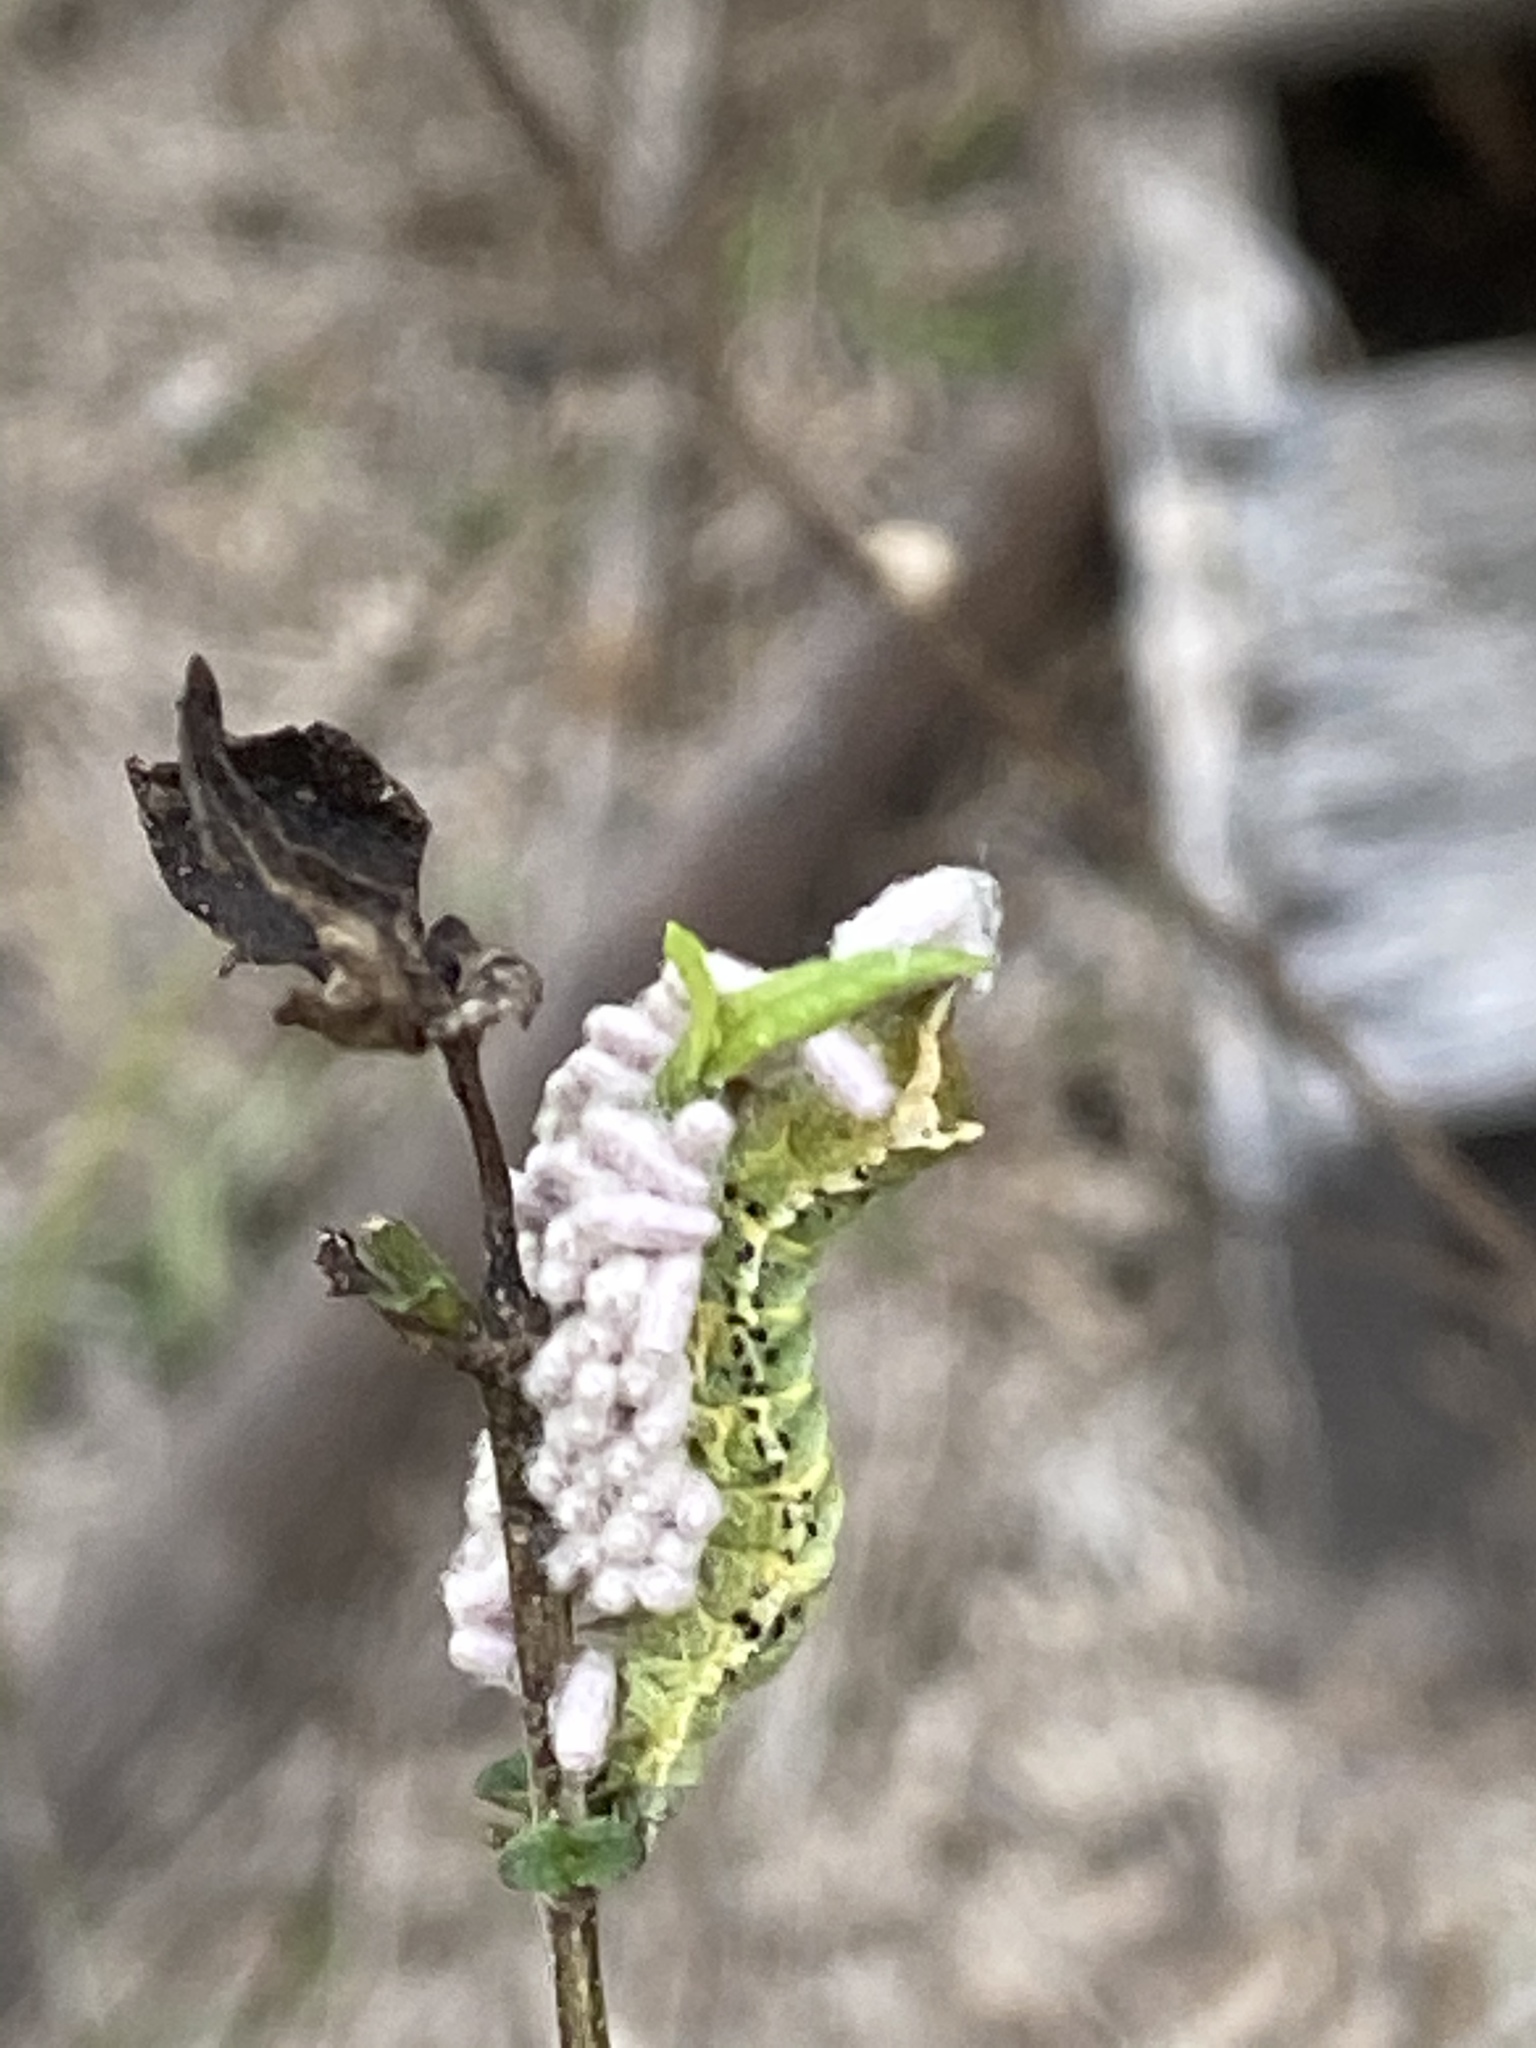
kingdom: Animalia
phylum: Arthropoda
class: Insecta
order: Lepidoptera
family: Noctuidae
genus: Condica
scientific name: Condica albigera
